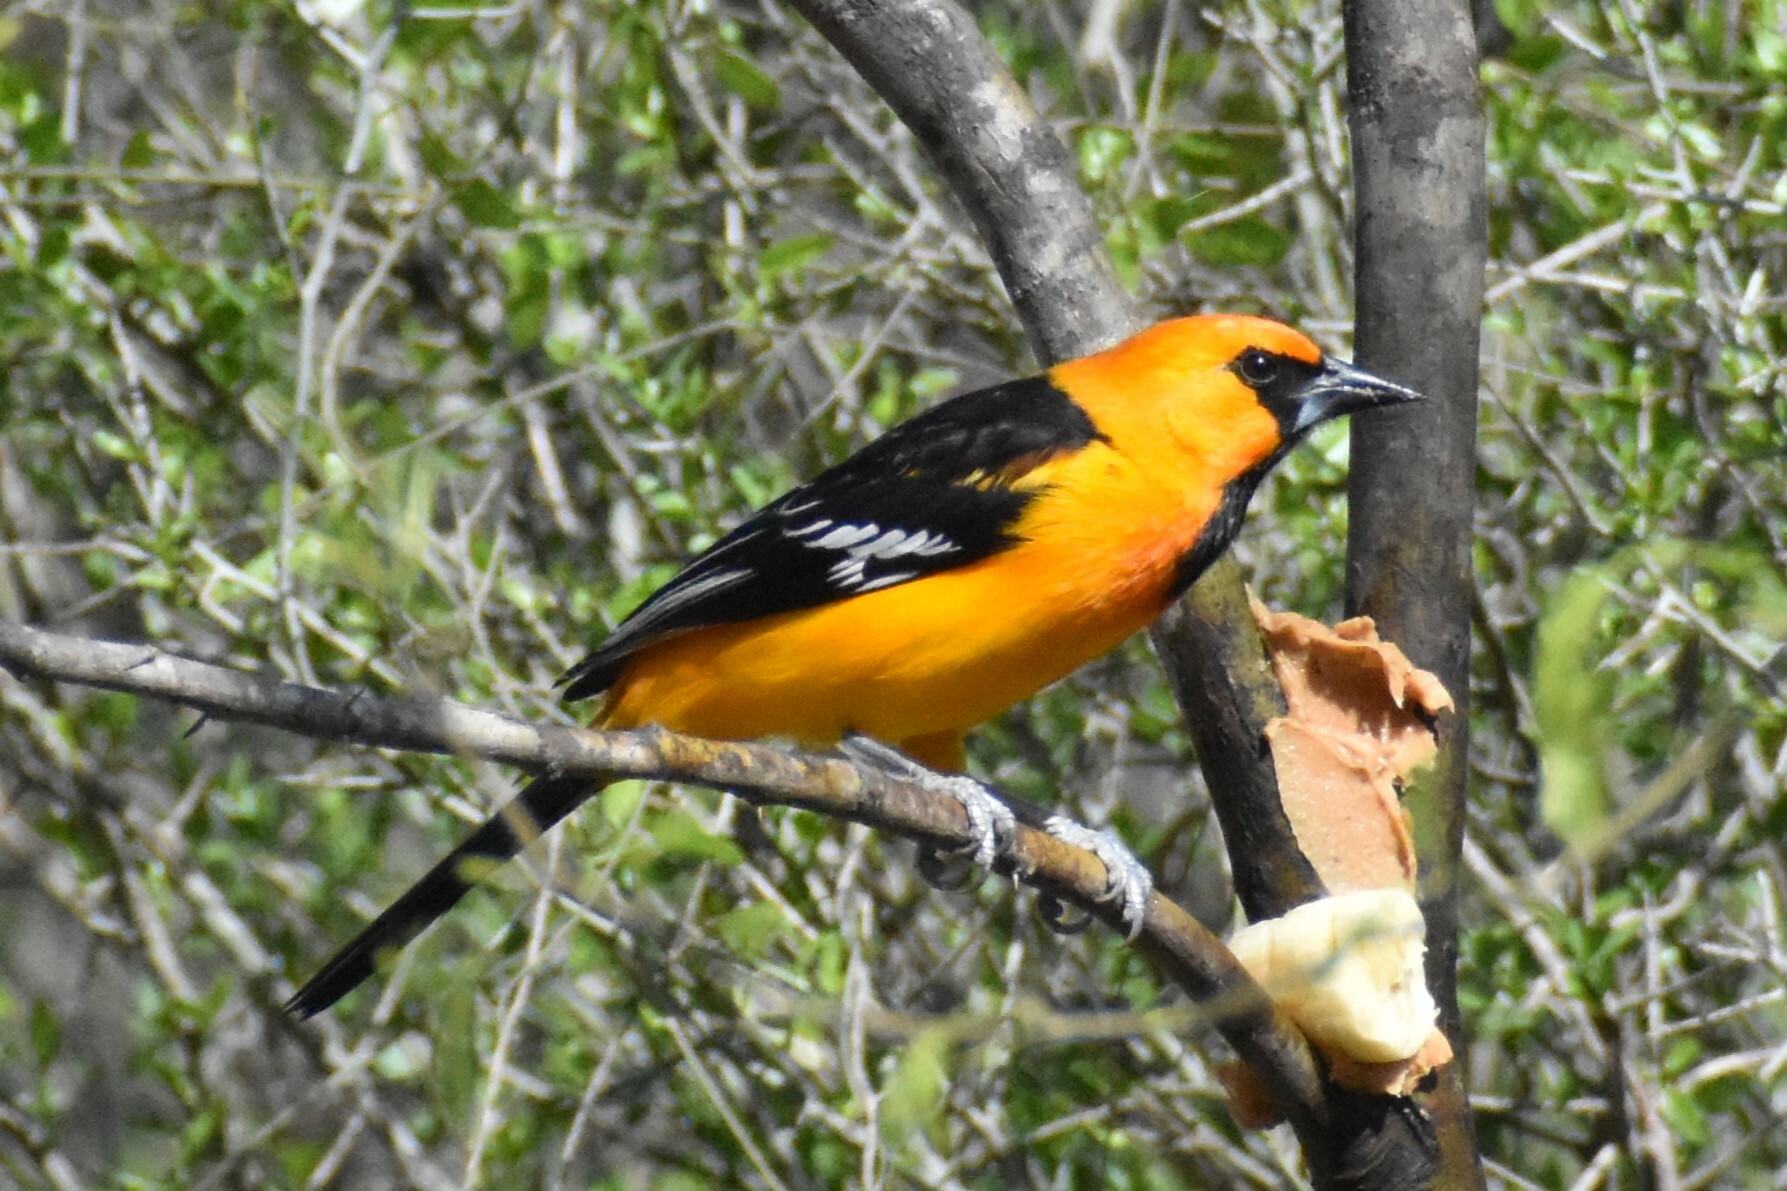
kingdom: Animalia
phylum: Chordata
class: Aves
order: Passeriformes
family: Icteridae
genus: Icterus
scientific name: Icterus gularis
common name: Altamira oriole
